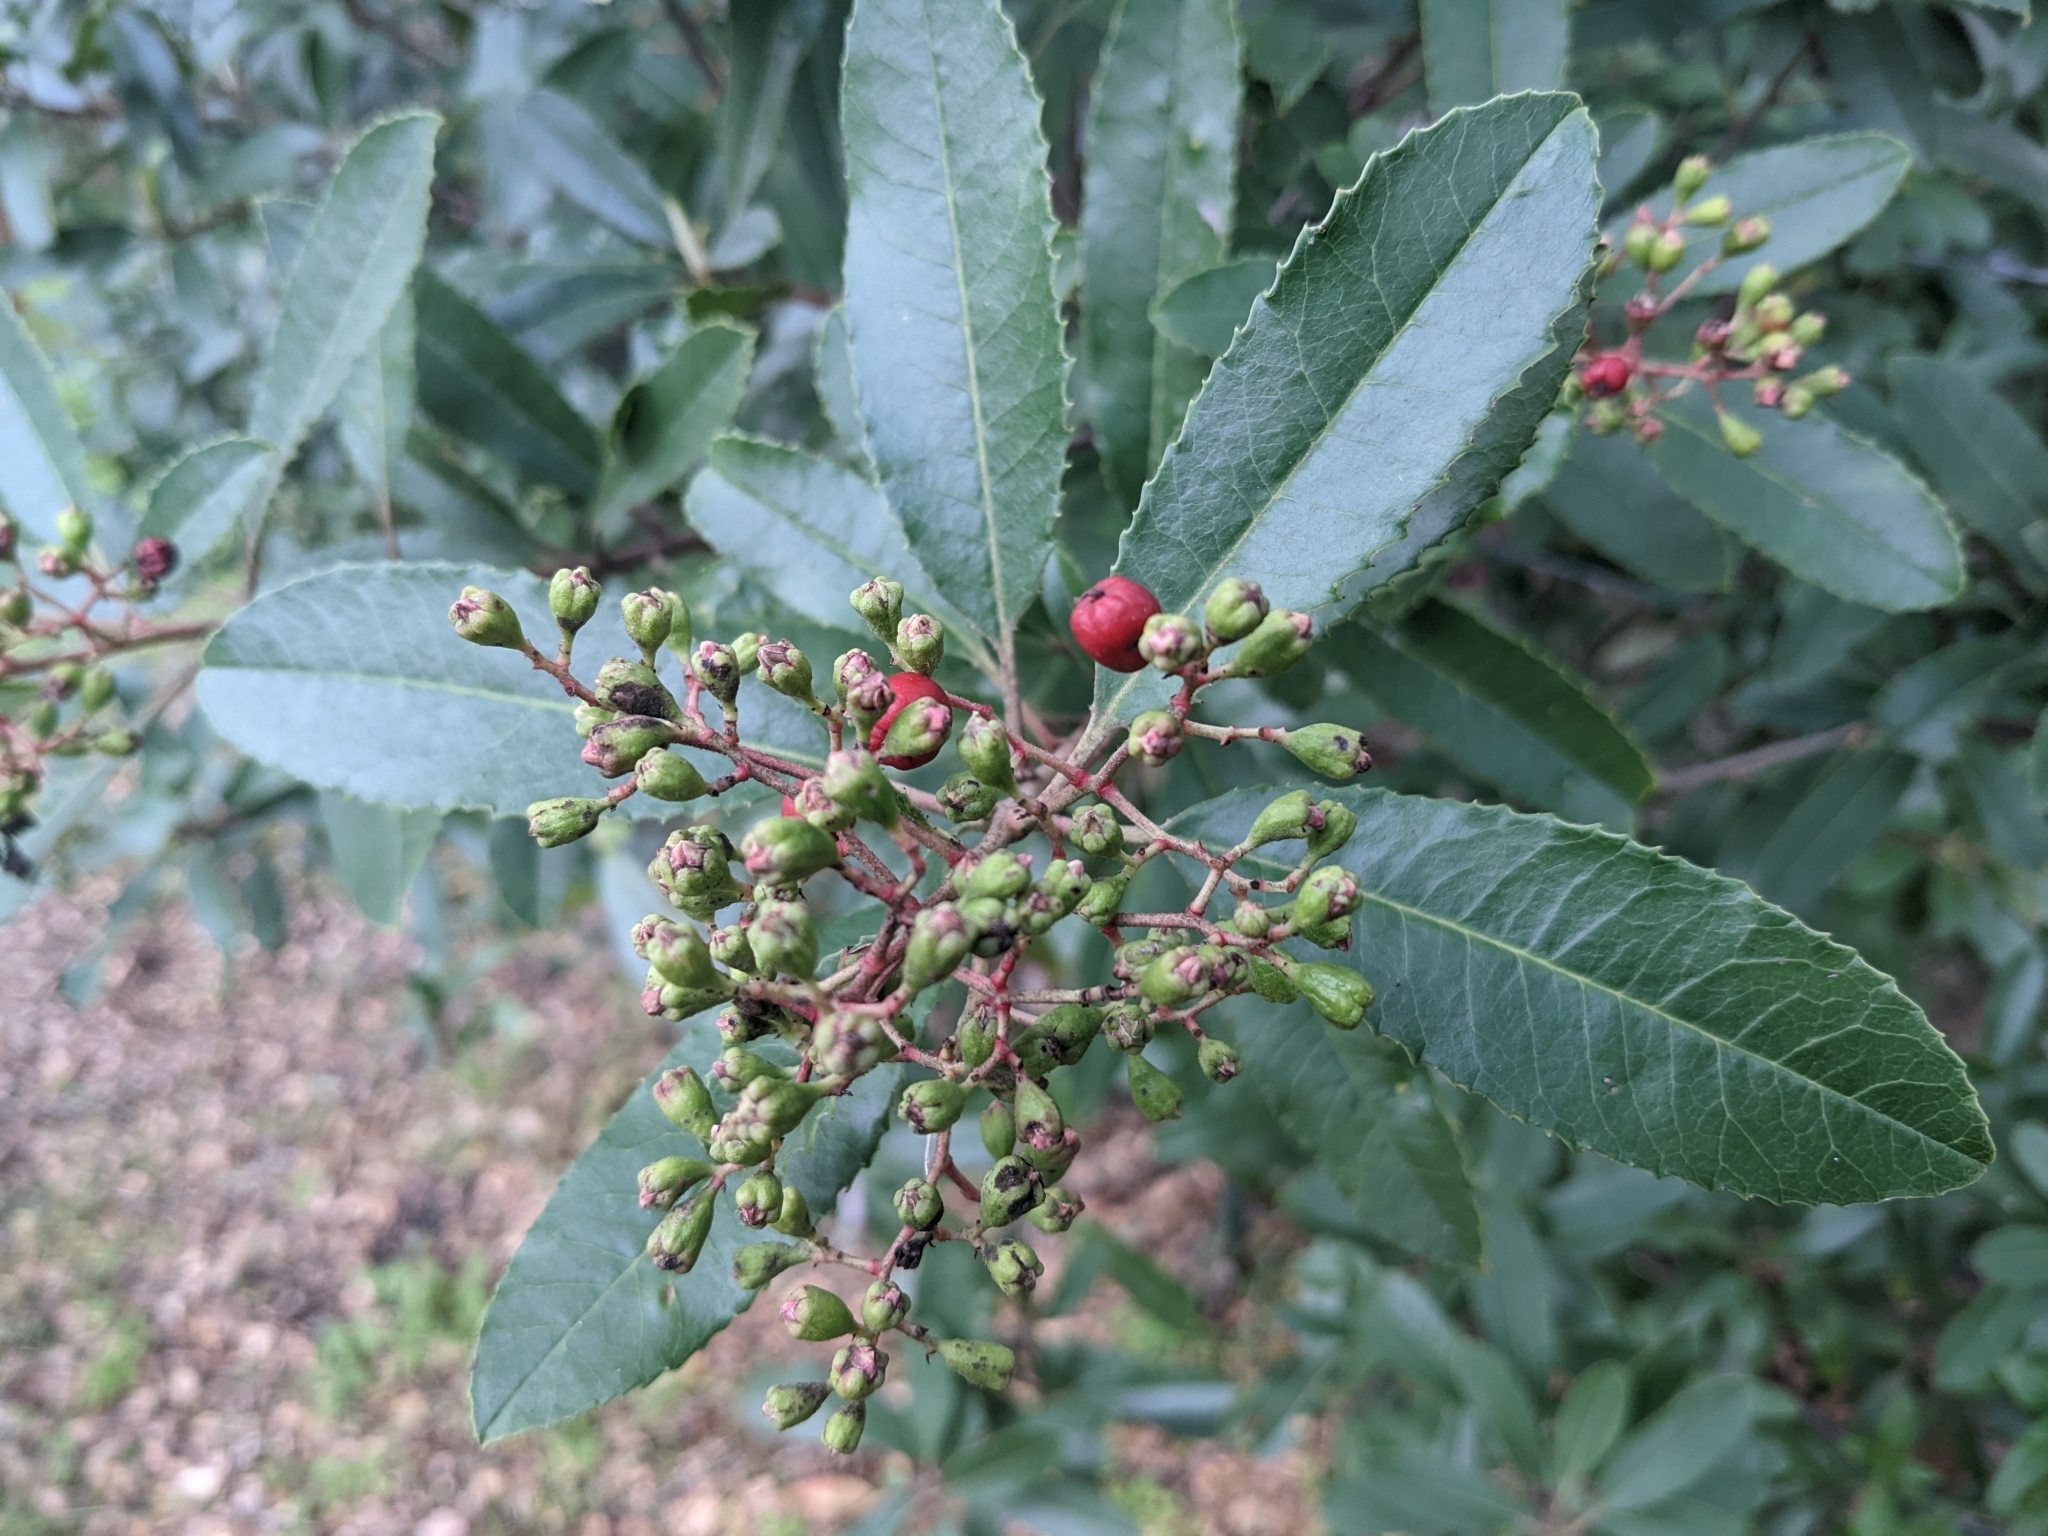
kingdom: Plantae
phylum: Tracheophyta
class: Magnoliopsida
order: Rosales
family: Rosaceae
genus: Heteromeles
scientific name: Heteromeles arbutifolia
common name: California-holly
